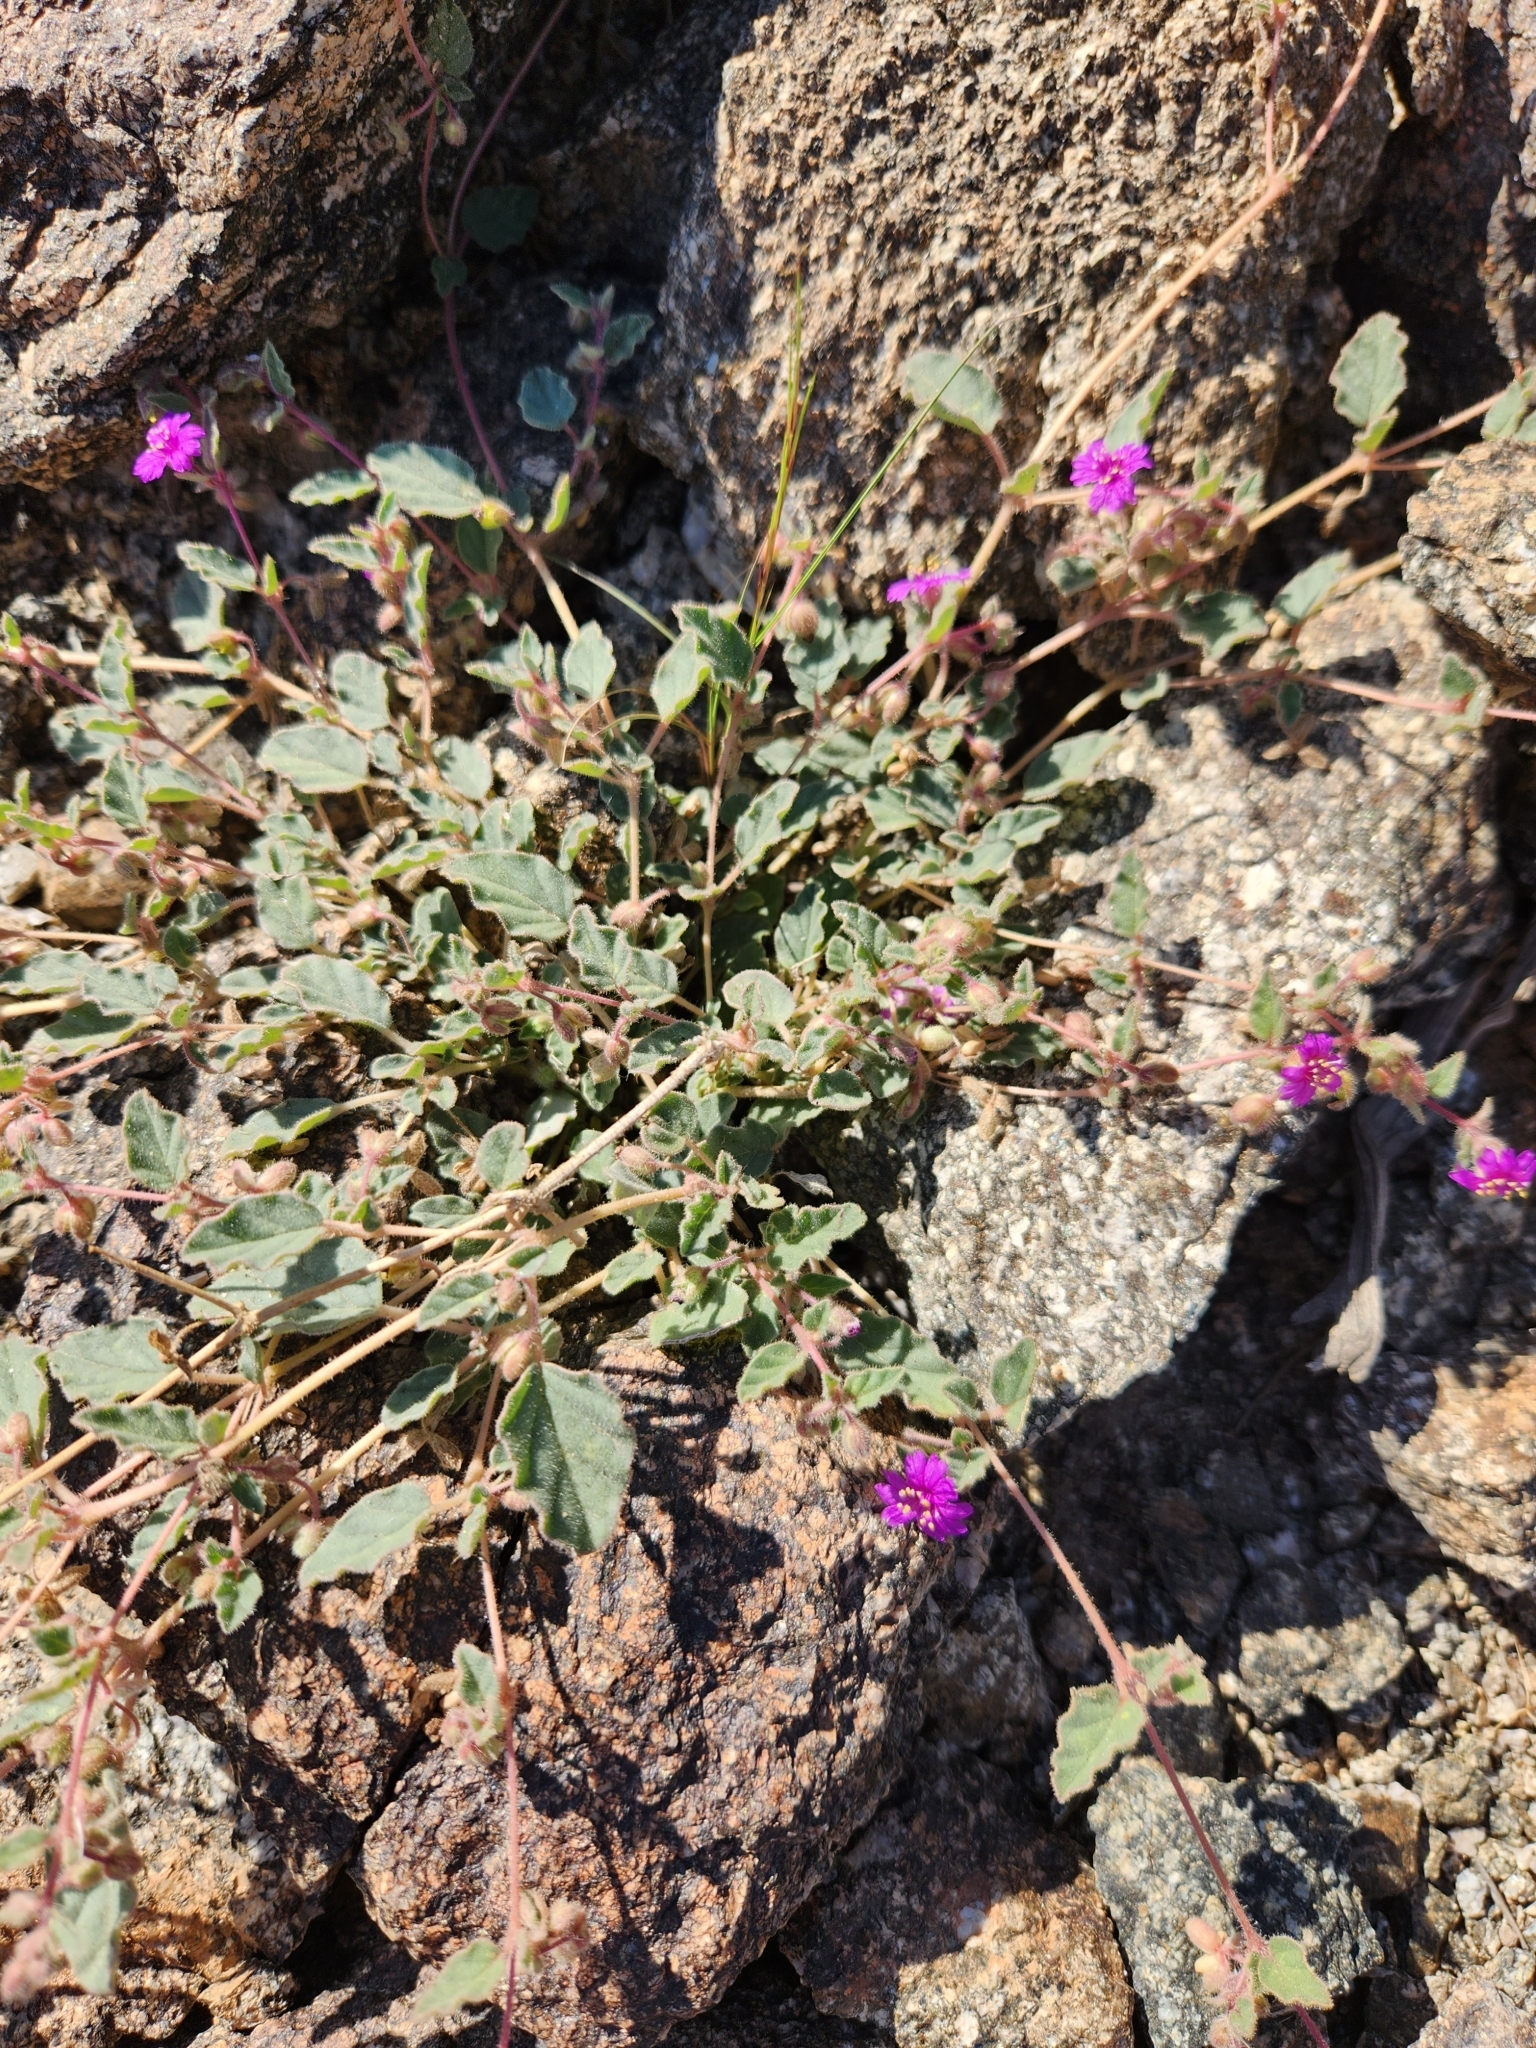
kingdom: Plantae
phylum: Tracheophyta
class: Magnoliopsida
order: Caryophyllales
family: Nyctaginaceae
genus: Allionia
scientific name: Allionia incarnata
